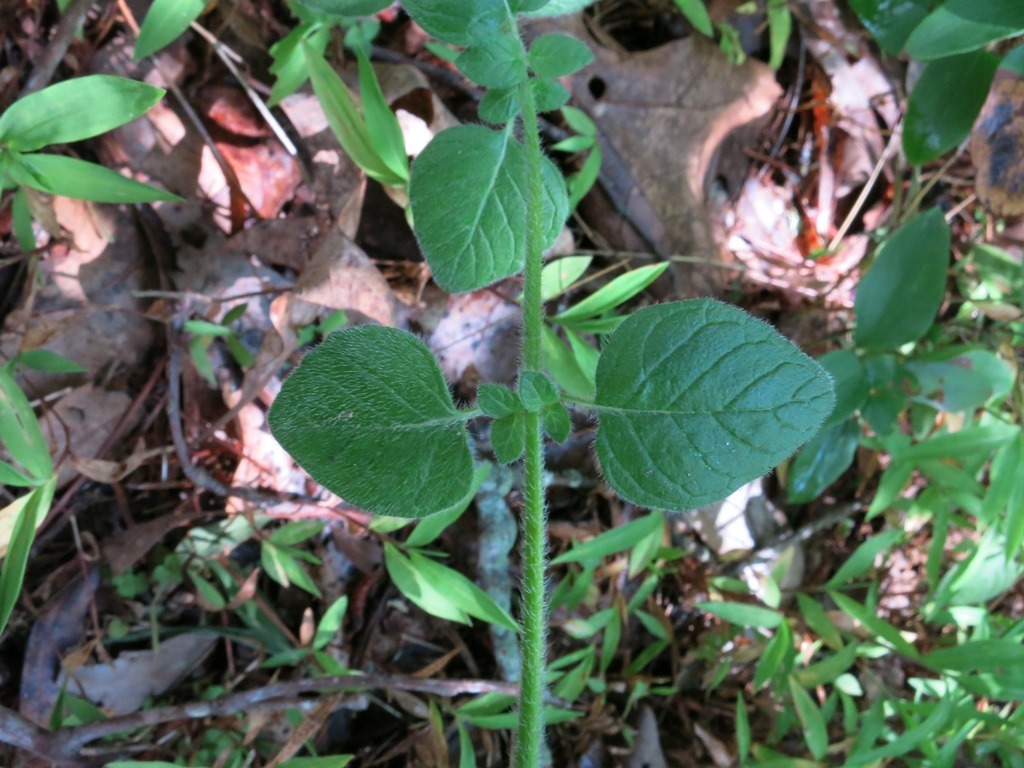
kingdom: Plantae
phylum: Tracheophyta
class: Magnoliopsida
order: Lamiales
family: Lamiaceae
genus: Clinopodium
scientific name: Clinopodium vulgare
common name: Wild basil
